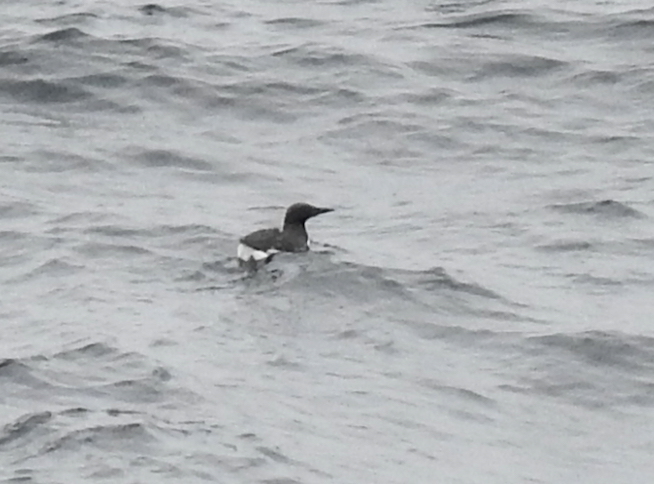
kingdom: Animalia
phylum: Chordata
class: Aves
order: Charadriiformes
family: Alcidae
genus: Uria
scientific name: Uria aalge
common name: Common murre
